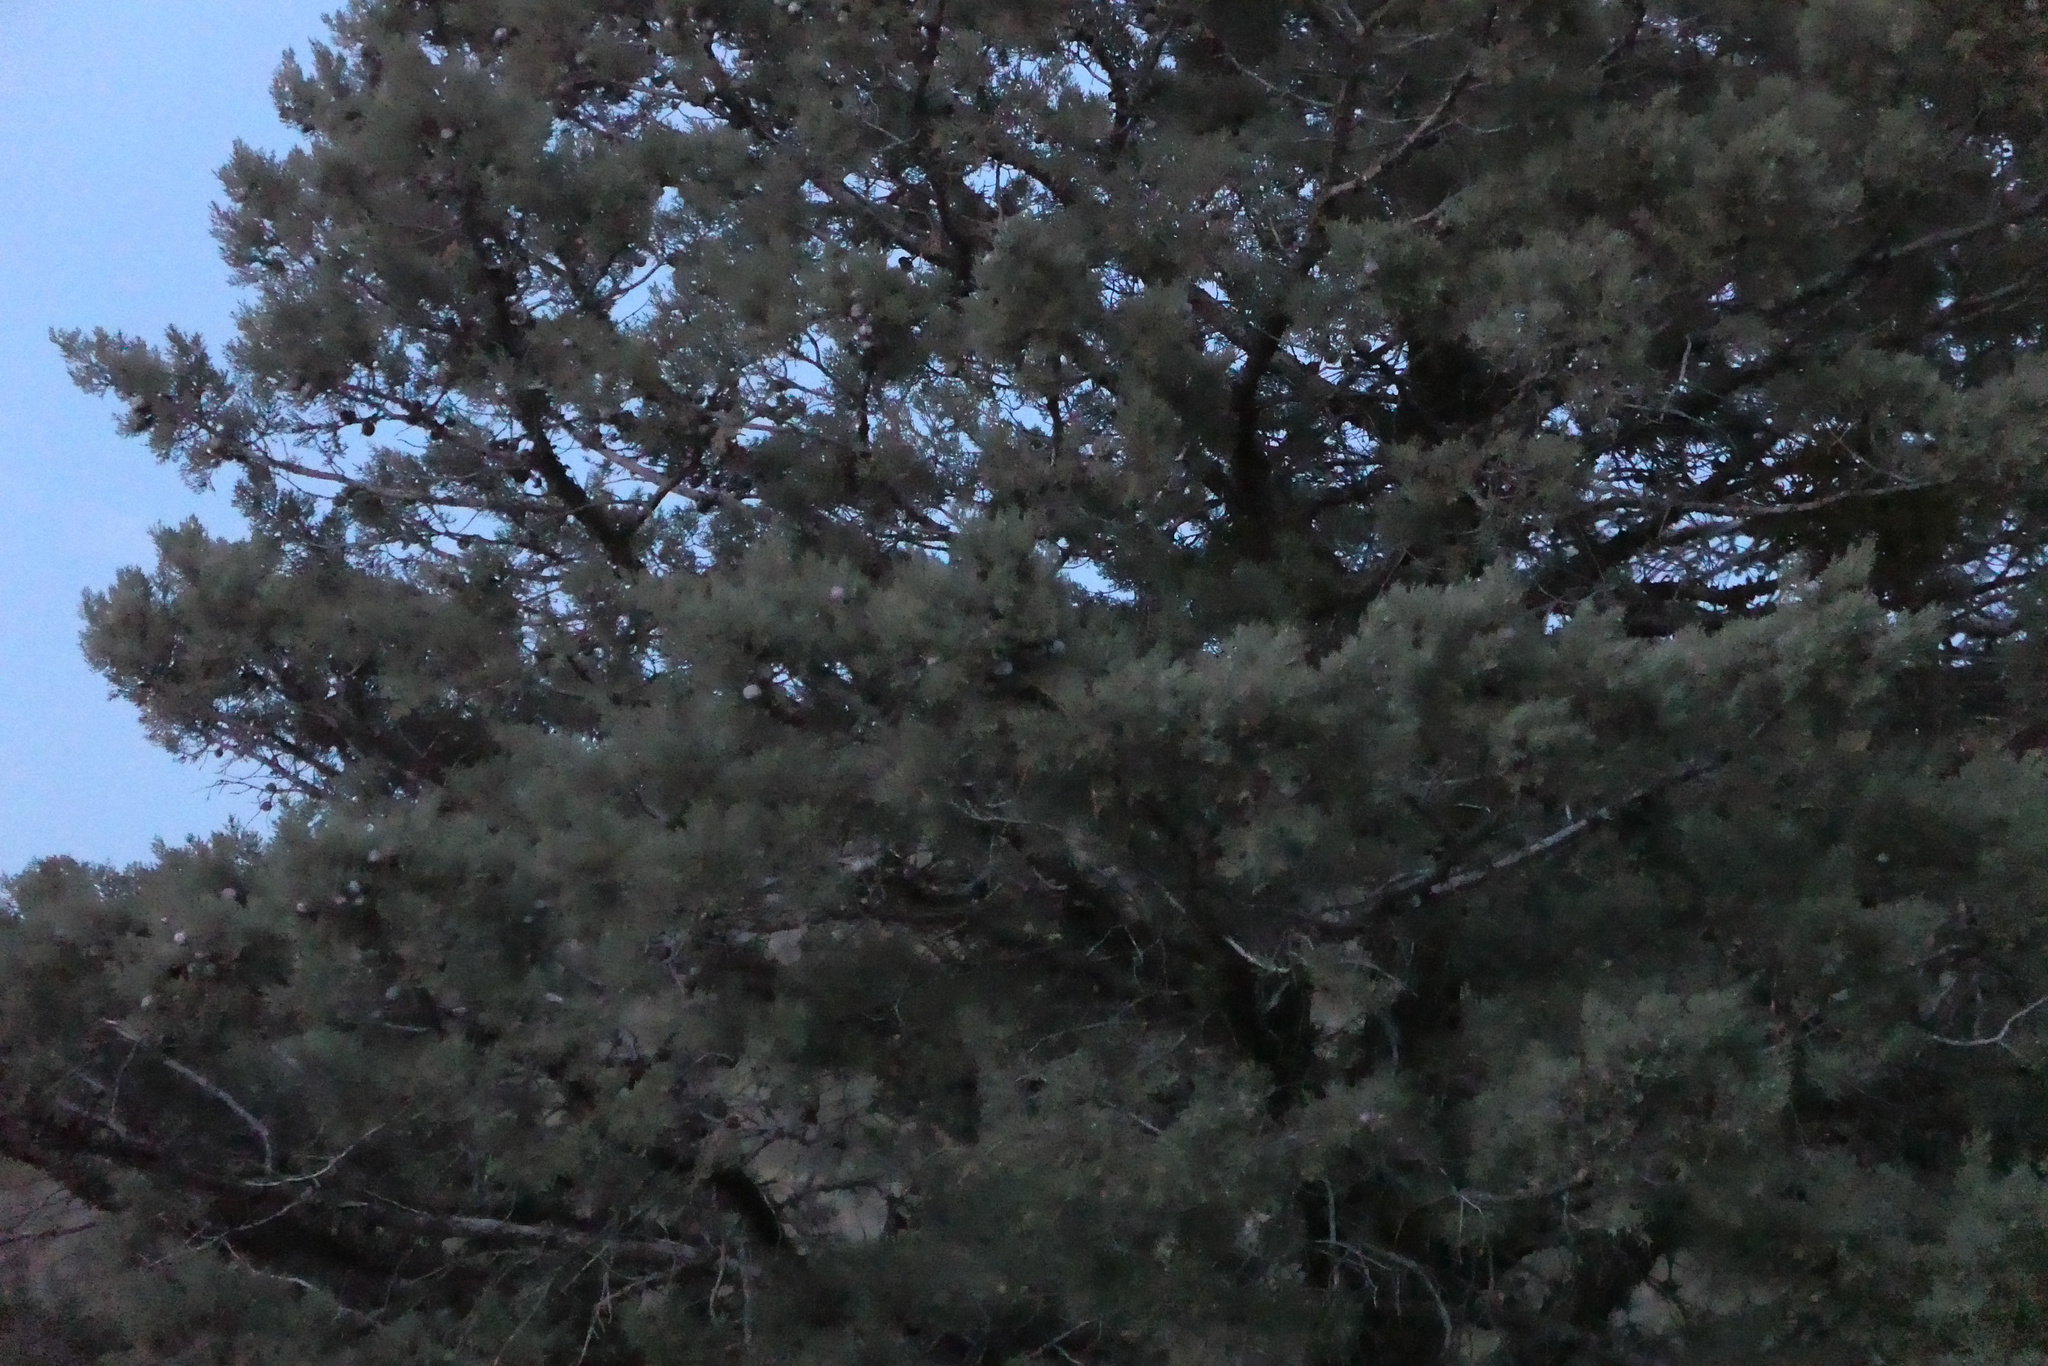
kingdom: Plantae
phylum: Tracheophyta
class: Pinopsida
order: Pinales
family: Cupressaceae
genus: Cupressus
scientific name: Cupressus arizonica
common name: Arizona cypress
